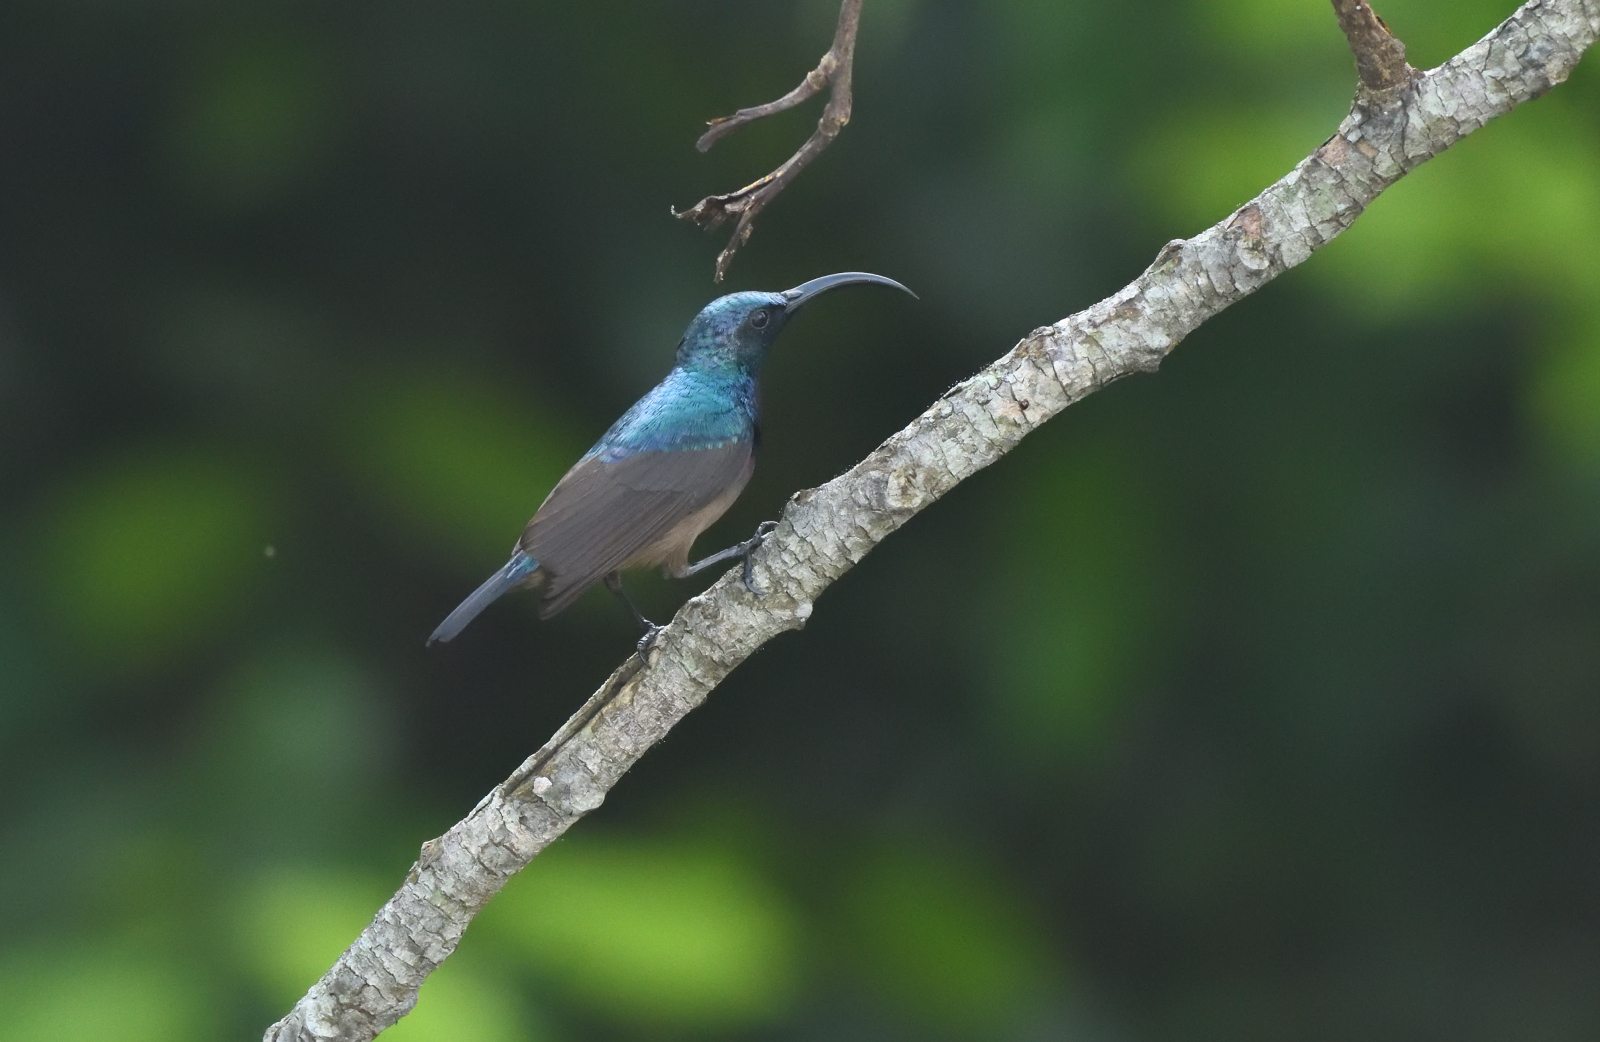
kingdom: Animalia
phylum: Chordata
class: Aves
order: Passeriformes
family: Nectariniidae
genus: Cinnyris
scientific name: Cinnyris lotenius
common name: Loten's sunbird
